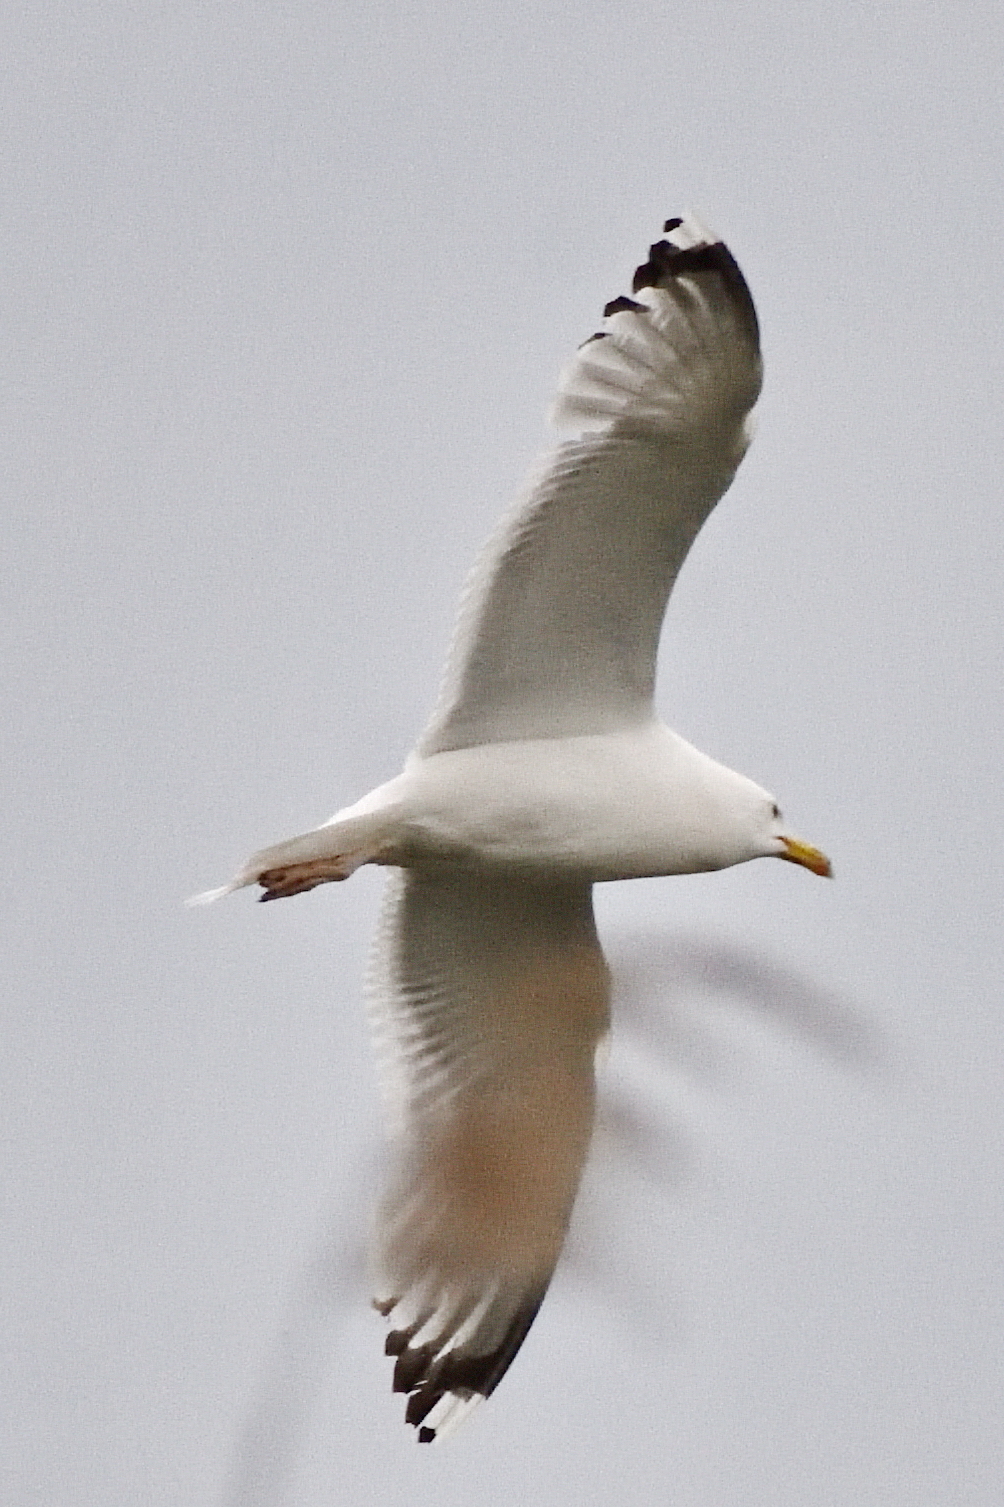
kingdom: Animalia
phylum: Chordata
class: Aves
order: Charadriiformes
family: Laridae
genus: Larus
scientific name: Larus cachinnans
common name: Caspian gull
